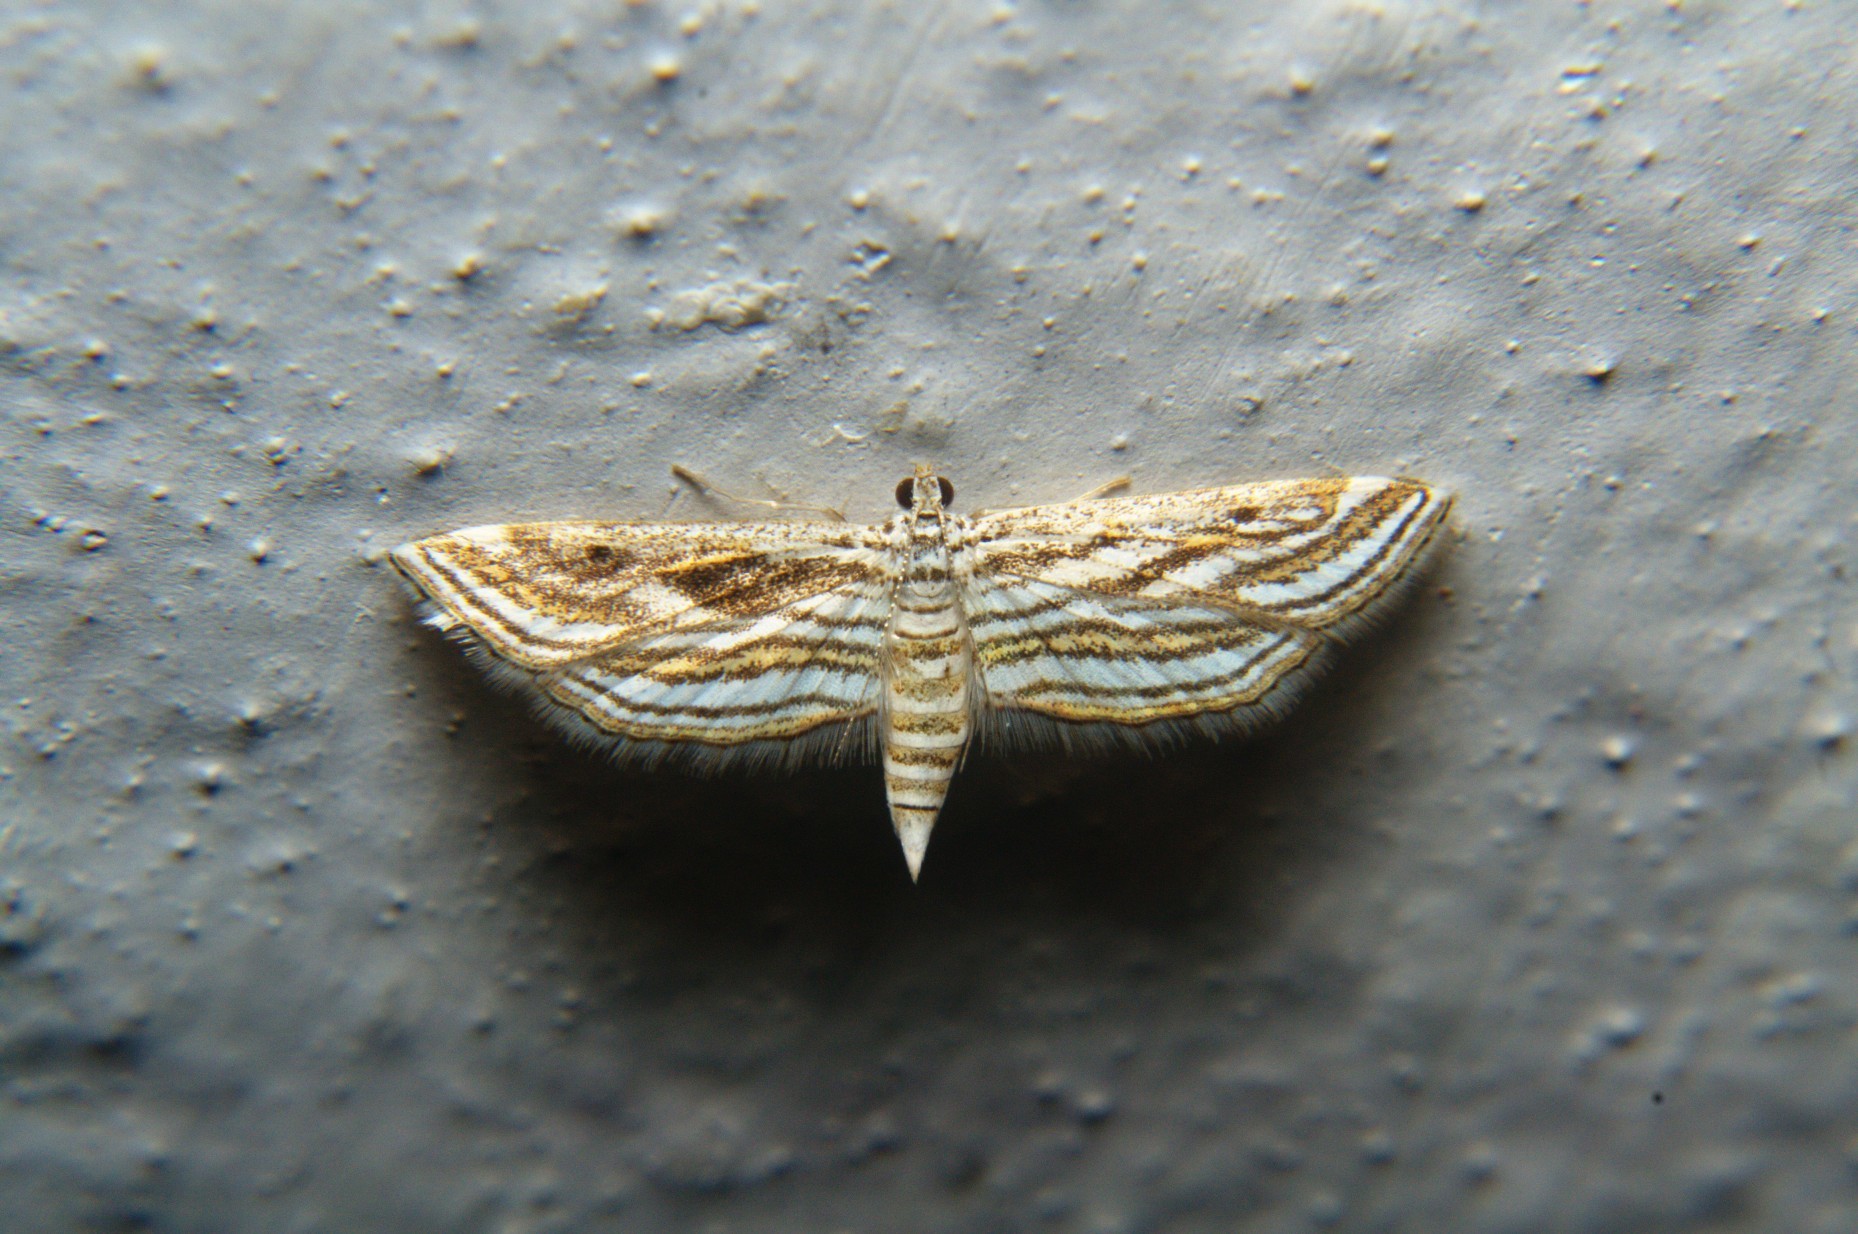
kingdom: Animalia
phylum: Arthropoda
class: Insecta
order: Lepidoptera
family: Crambidae
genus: Parapoynx
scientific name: Parapoynx fluctuosalis
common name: Moth
